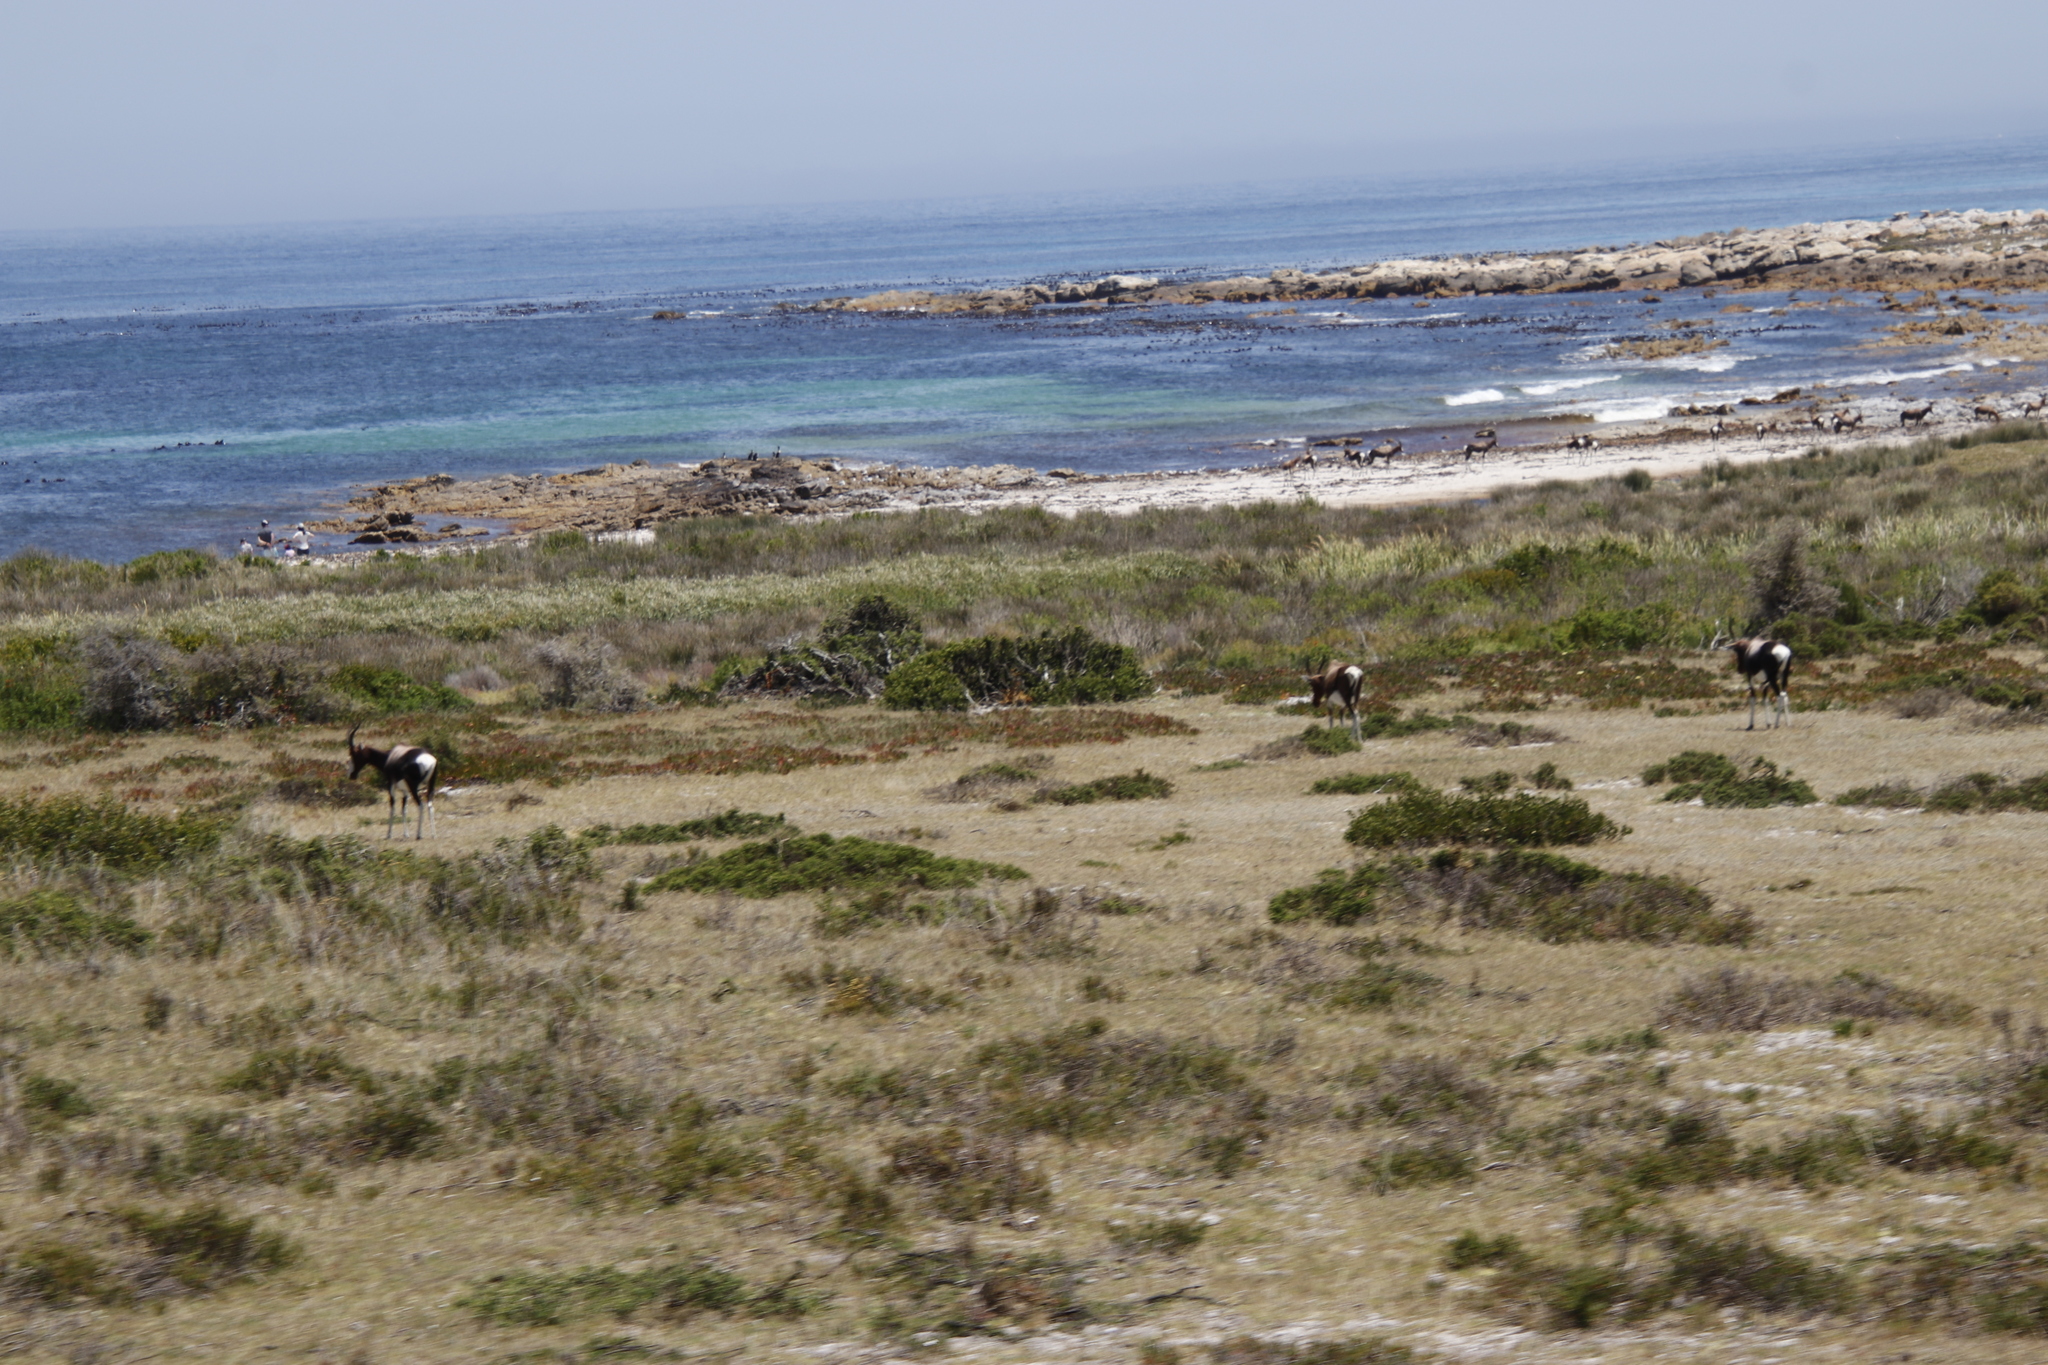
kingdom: Animalia
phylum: Chordata
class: Mammalia
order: Artiodactyla
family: Bovidae
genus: Damaliscus
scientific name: Damaliscus pygargus
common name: Bontebok
